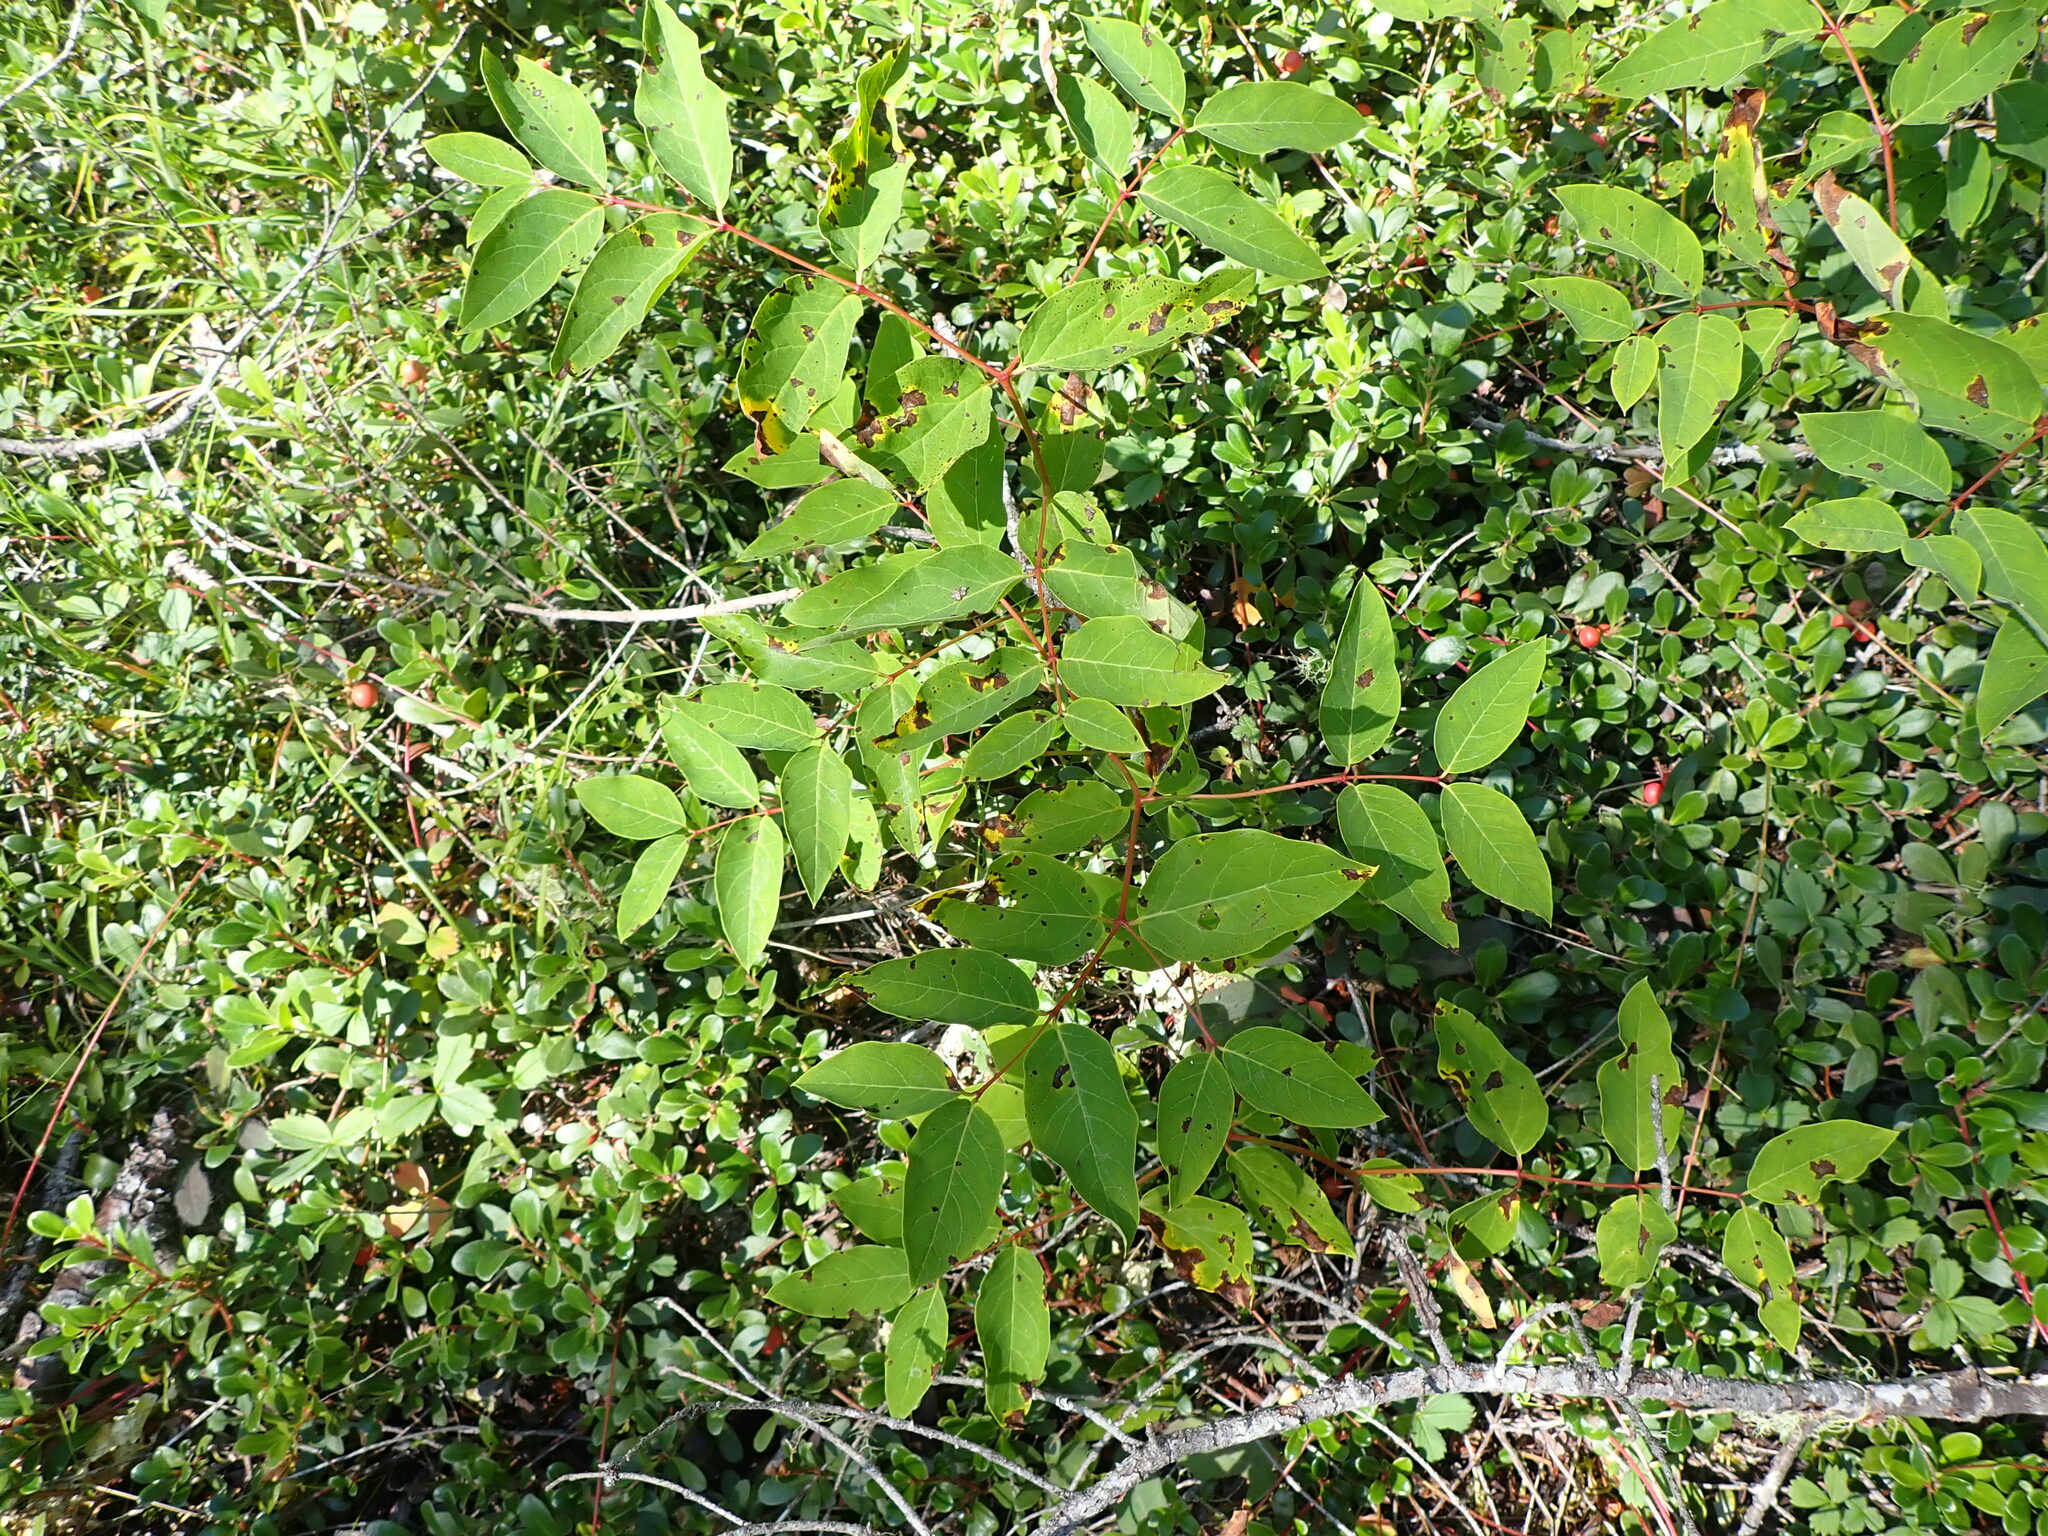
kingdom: Plantae
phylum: Tracheophyta
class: Magnoliopsida
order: Gentianales
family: Apocynaceae
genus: Apocynum
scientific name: Apocynum androsaemifolium
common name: Spreading dogbane
